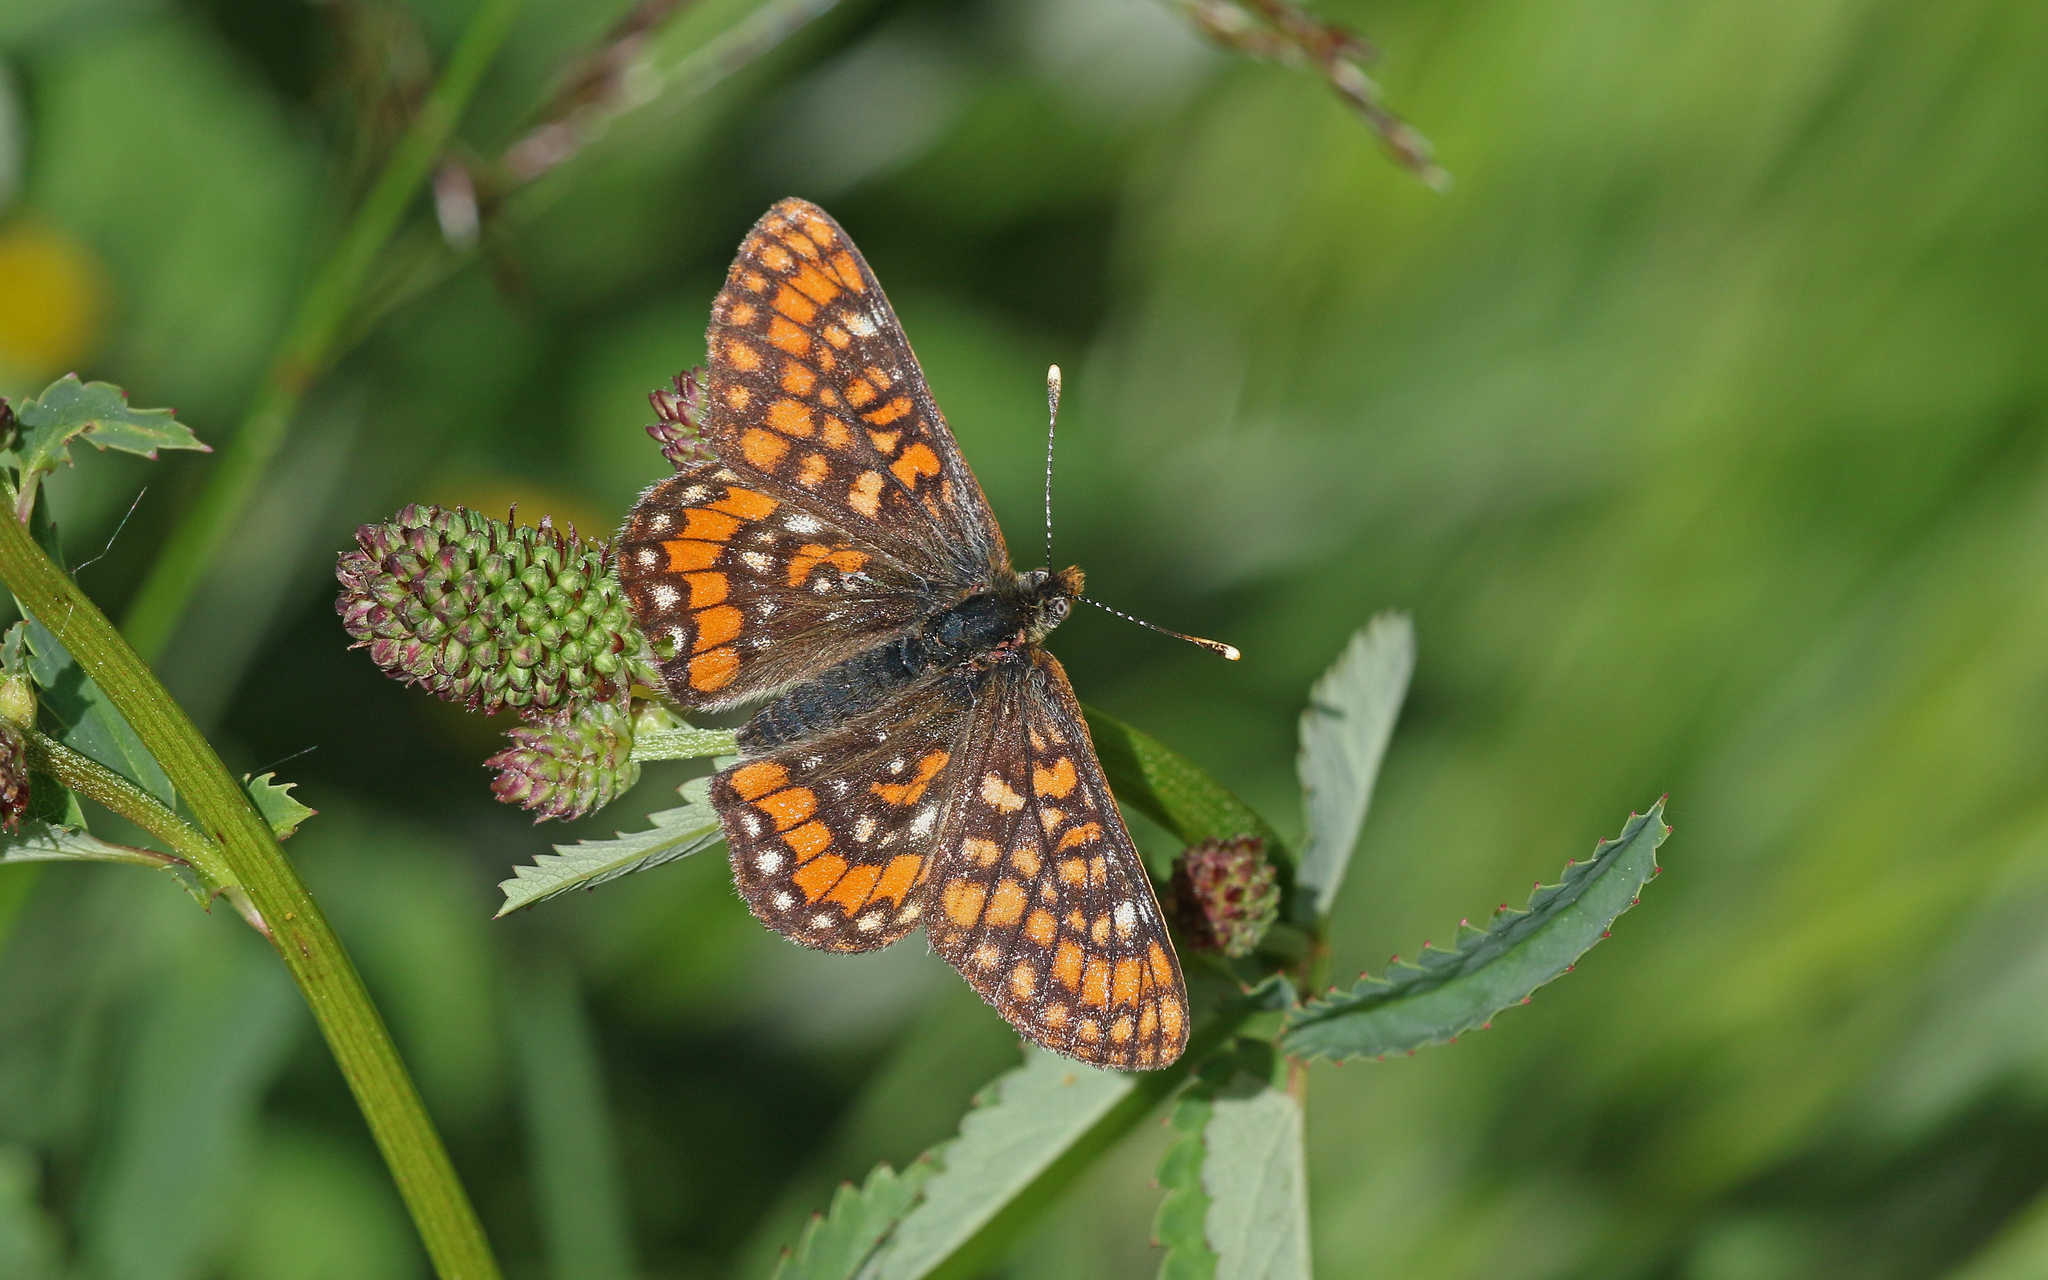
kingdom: Animalia
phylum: Arthropoda
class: Insecta
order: Lepidoptera
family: Nymphalidae
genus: Hypodryas
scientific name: Hypodryas intermedia
